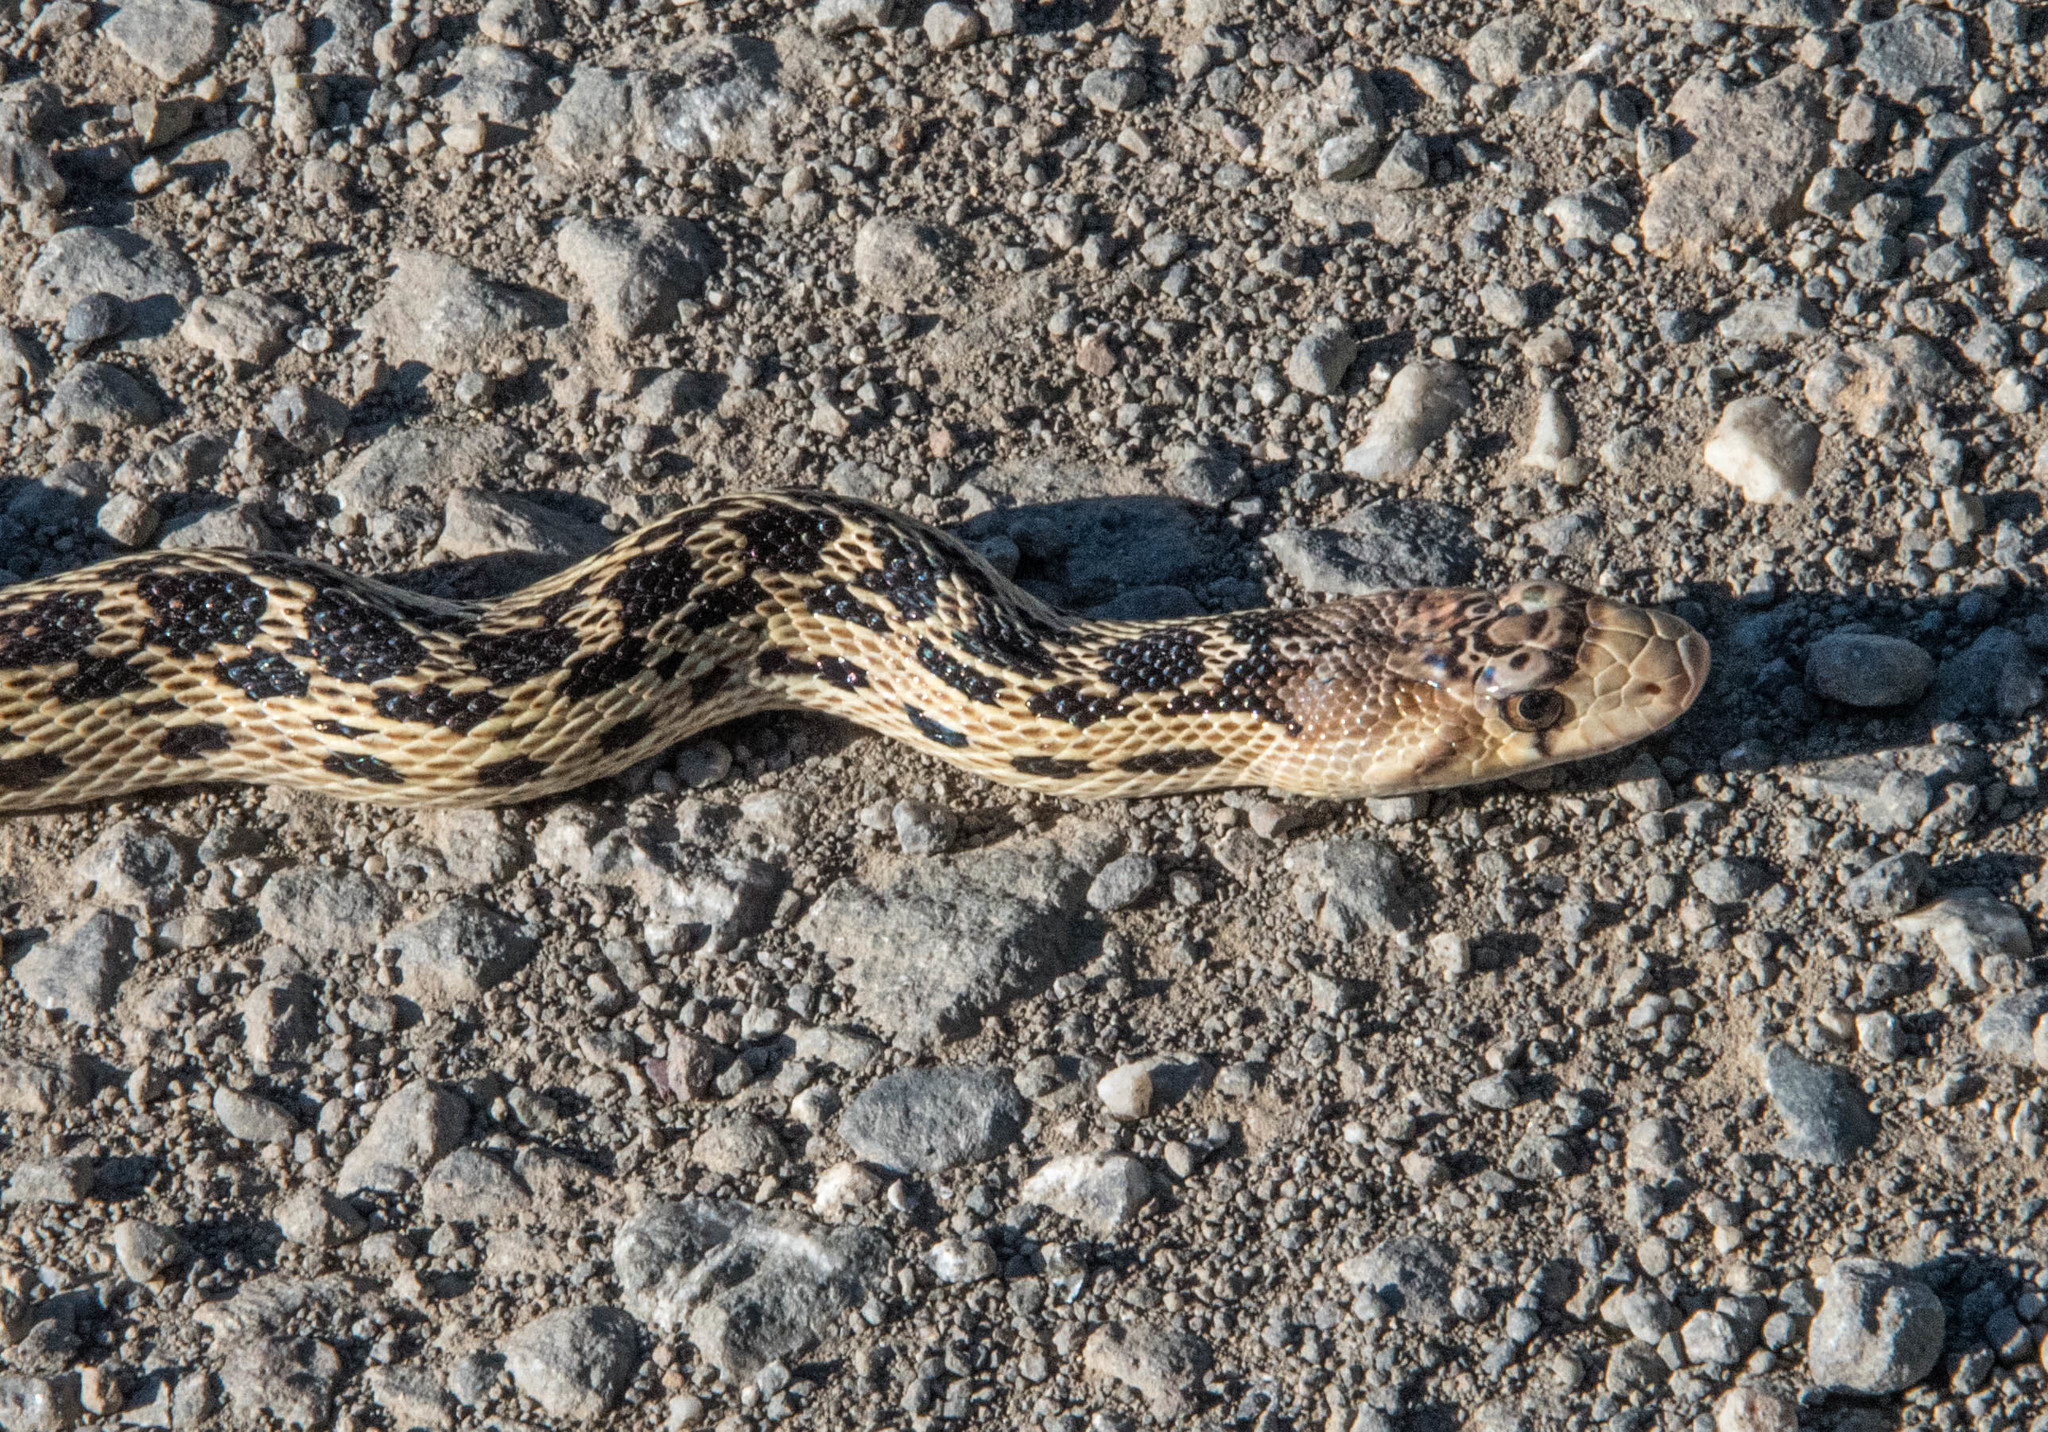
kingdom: Animalia
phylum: Chordata
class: Squamata
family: Colubridae
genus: Pituophis
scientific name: Pituophis catenifer
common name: Gopher snake
